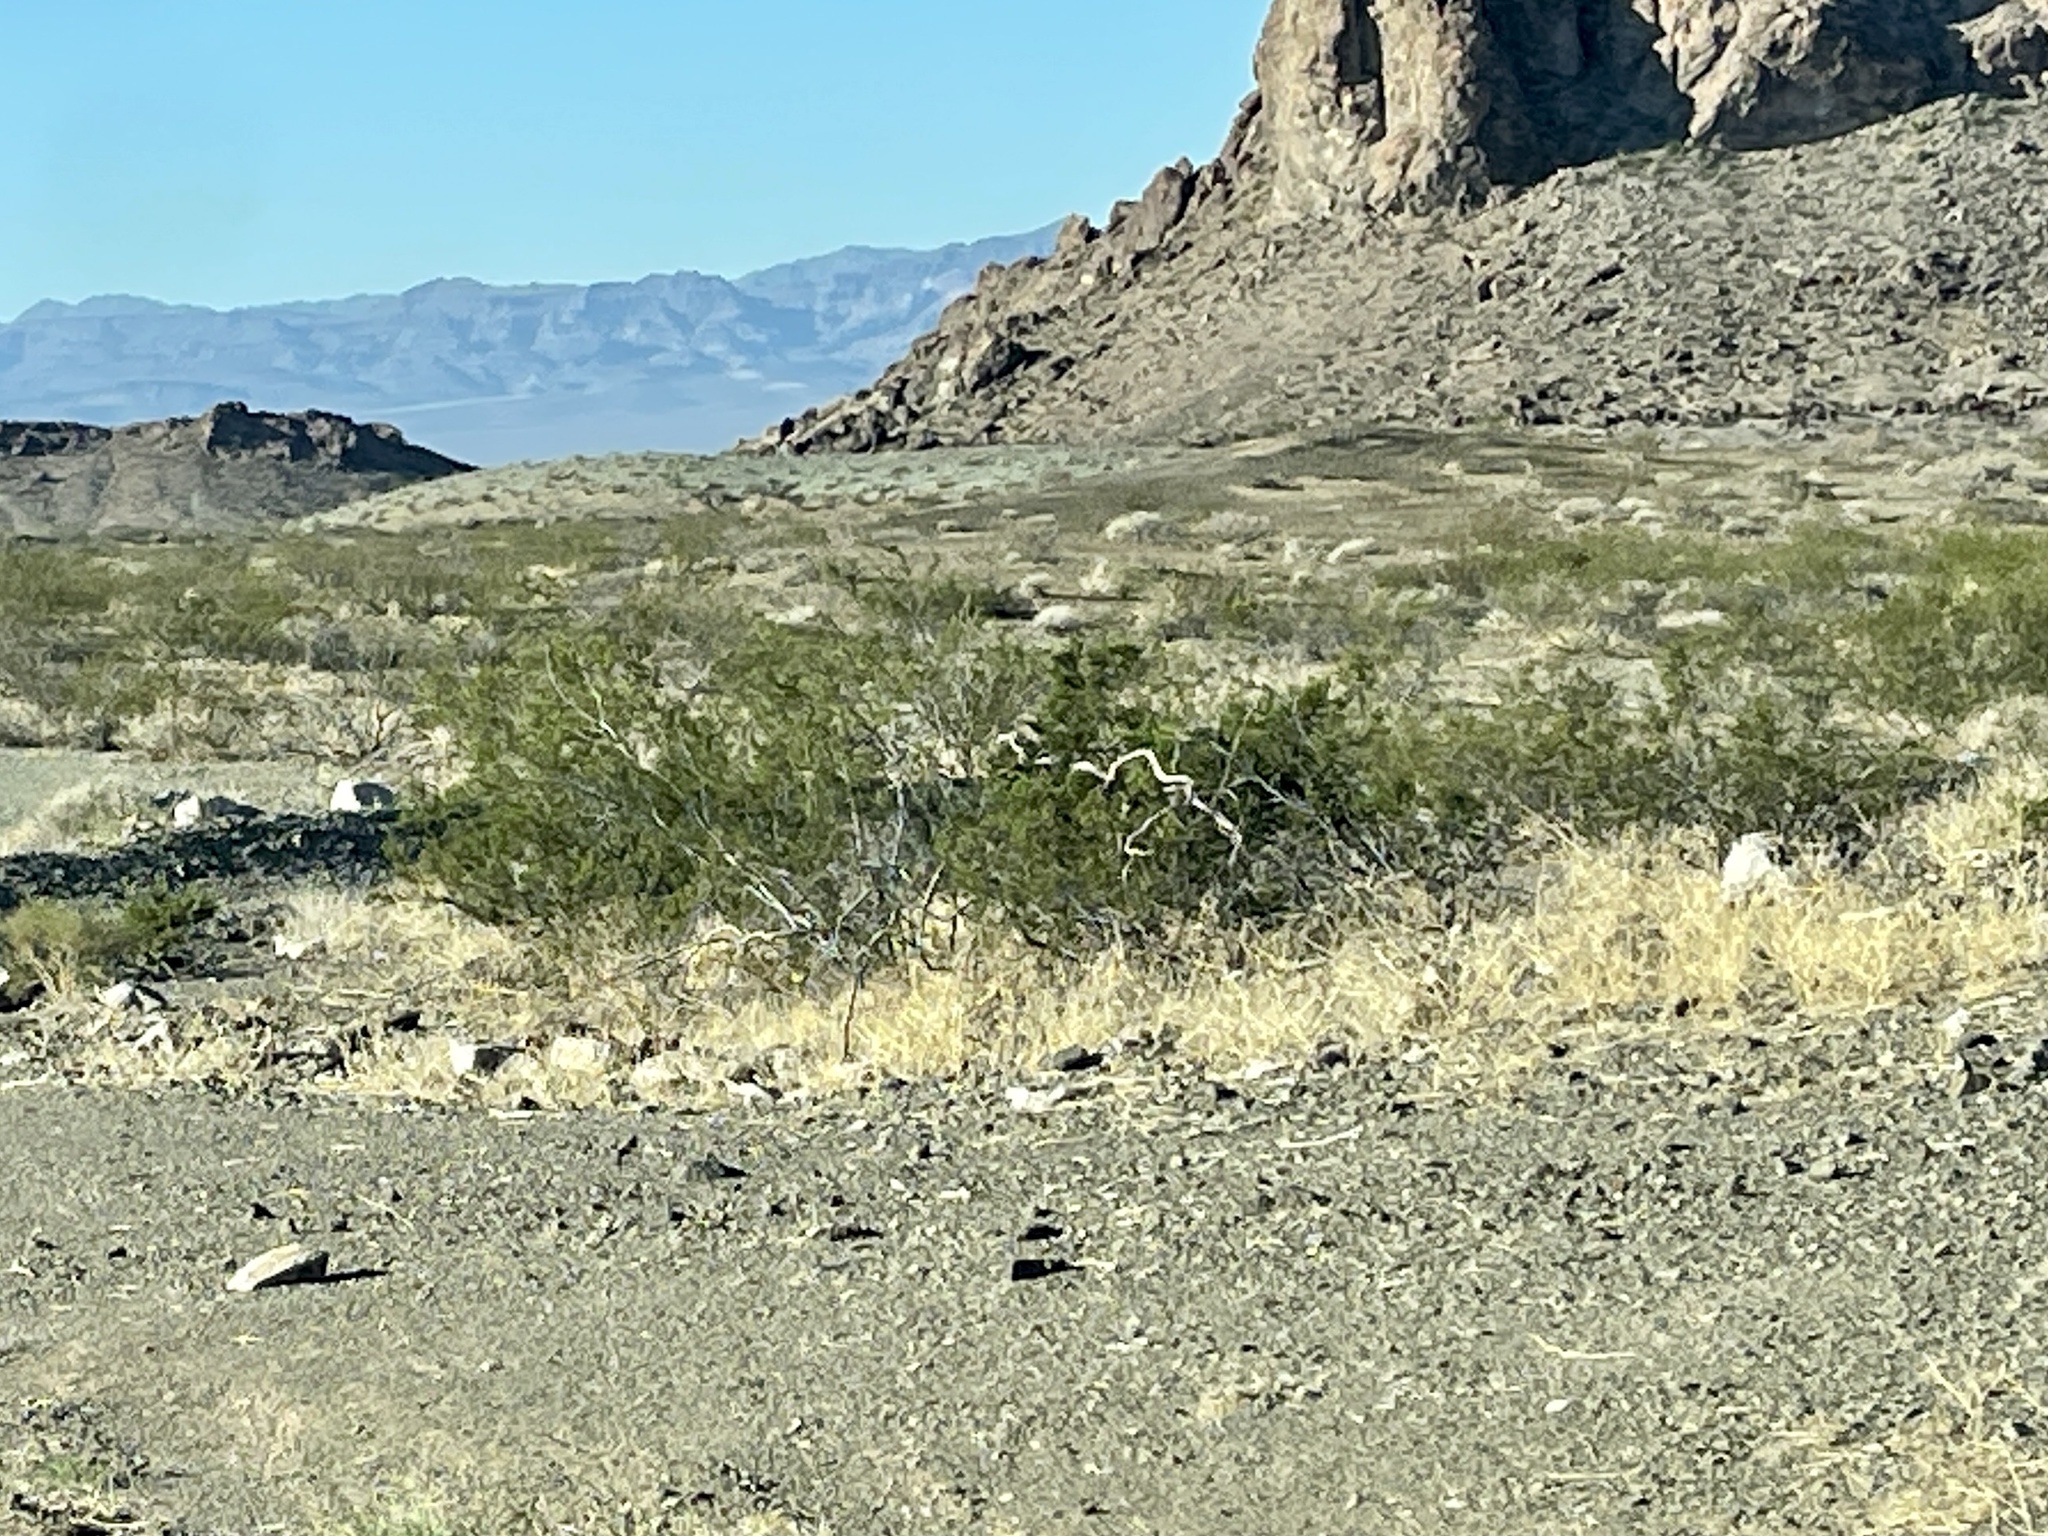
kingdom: Plantae
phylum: Tracheophyta
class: Magnoliopsida
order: Zygophyllales
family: Zygophyllaceae
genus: Larrea
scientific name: Larrea tridentata
